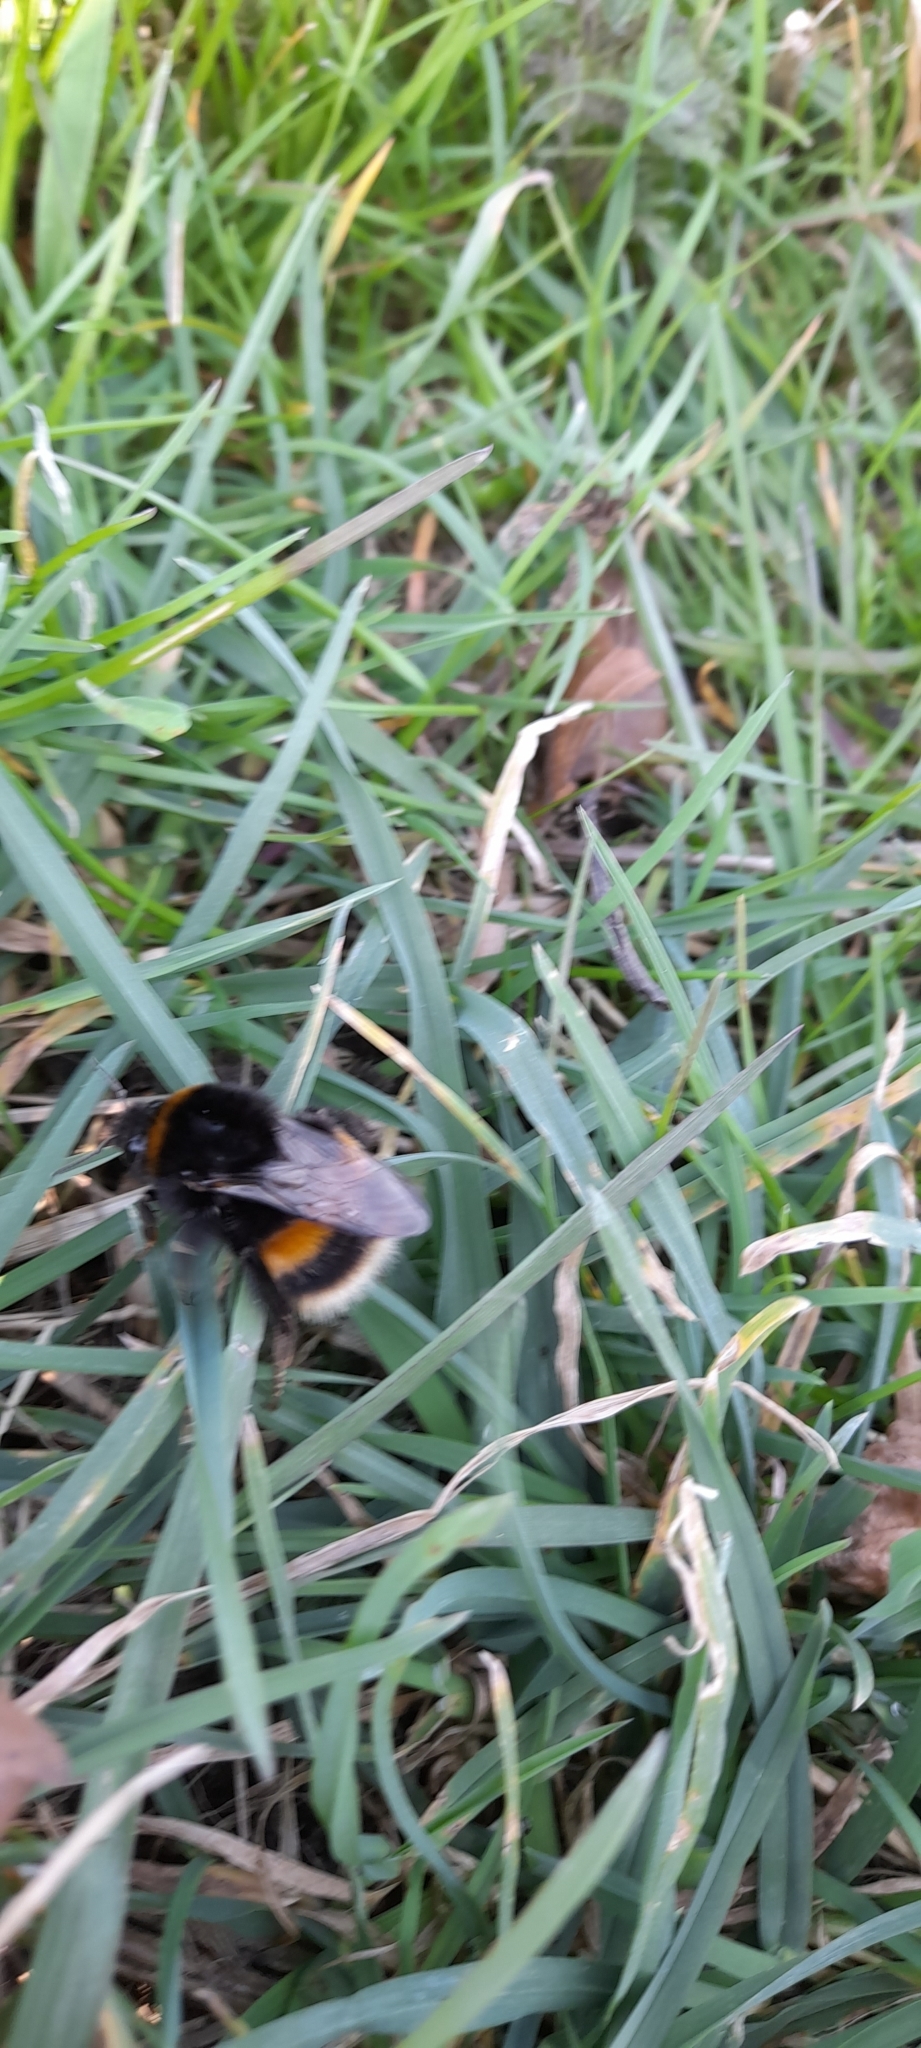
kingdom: Animalia
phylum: Arthropoda
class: Insecta
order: Hymenoptera
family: Apidae
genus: Bombus
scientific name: Bombus terrestris
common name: Buff-tailed bumblebee
